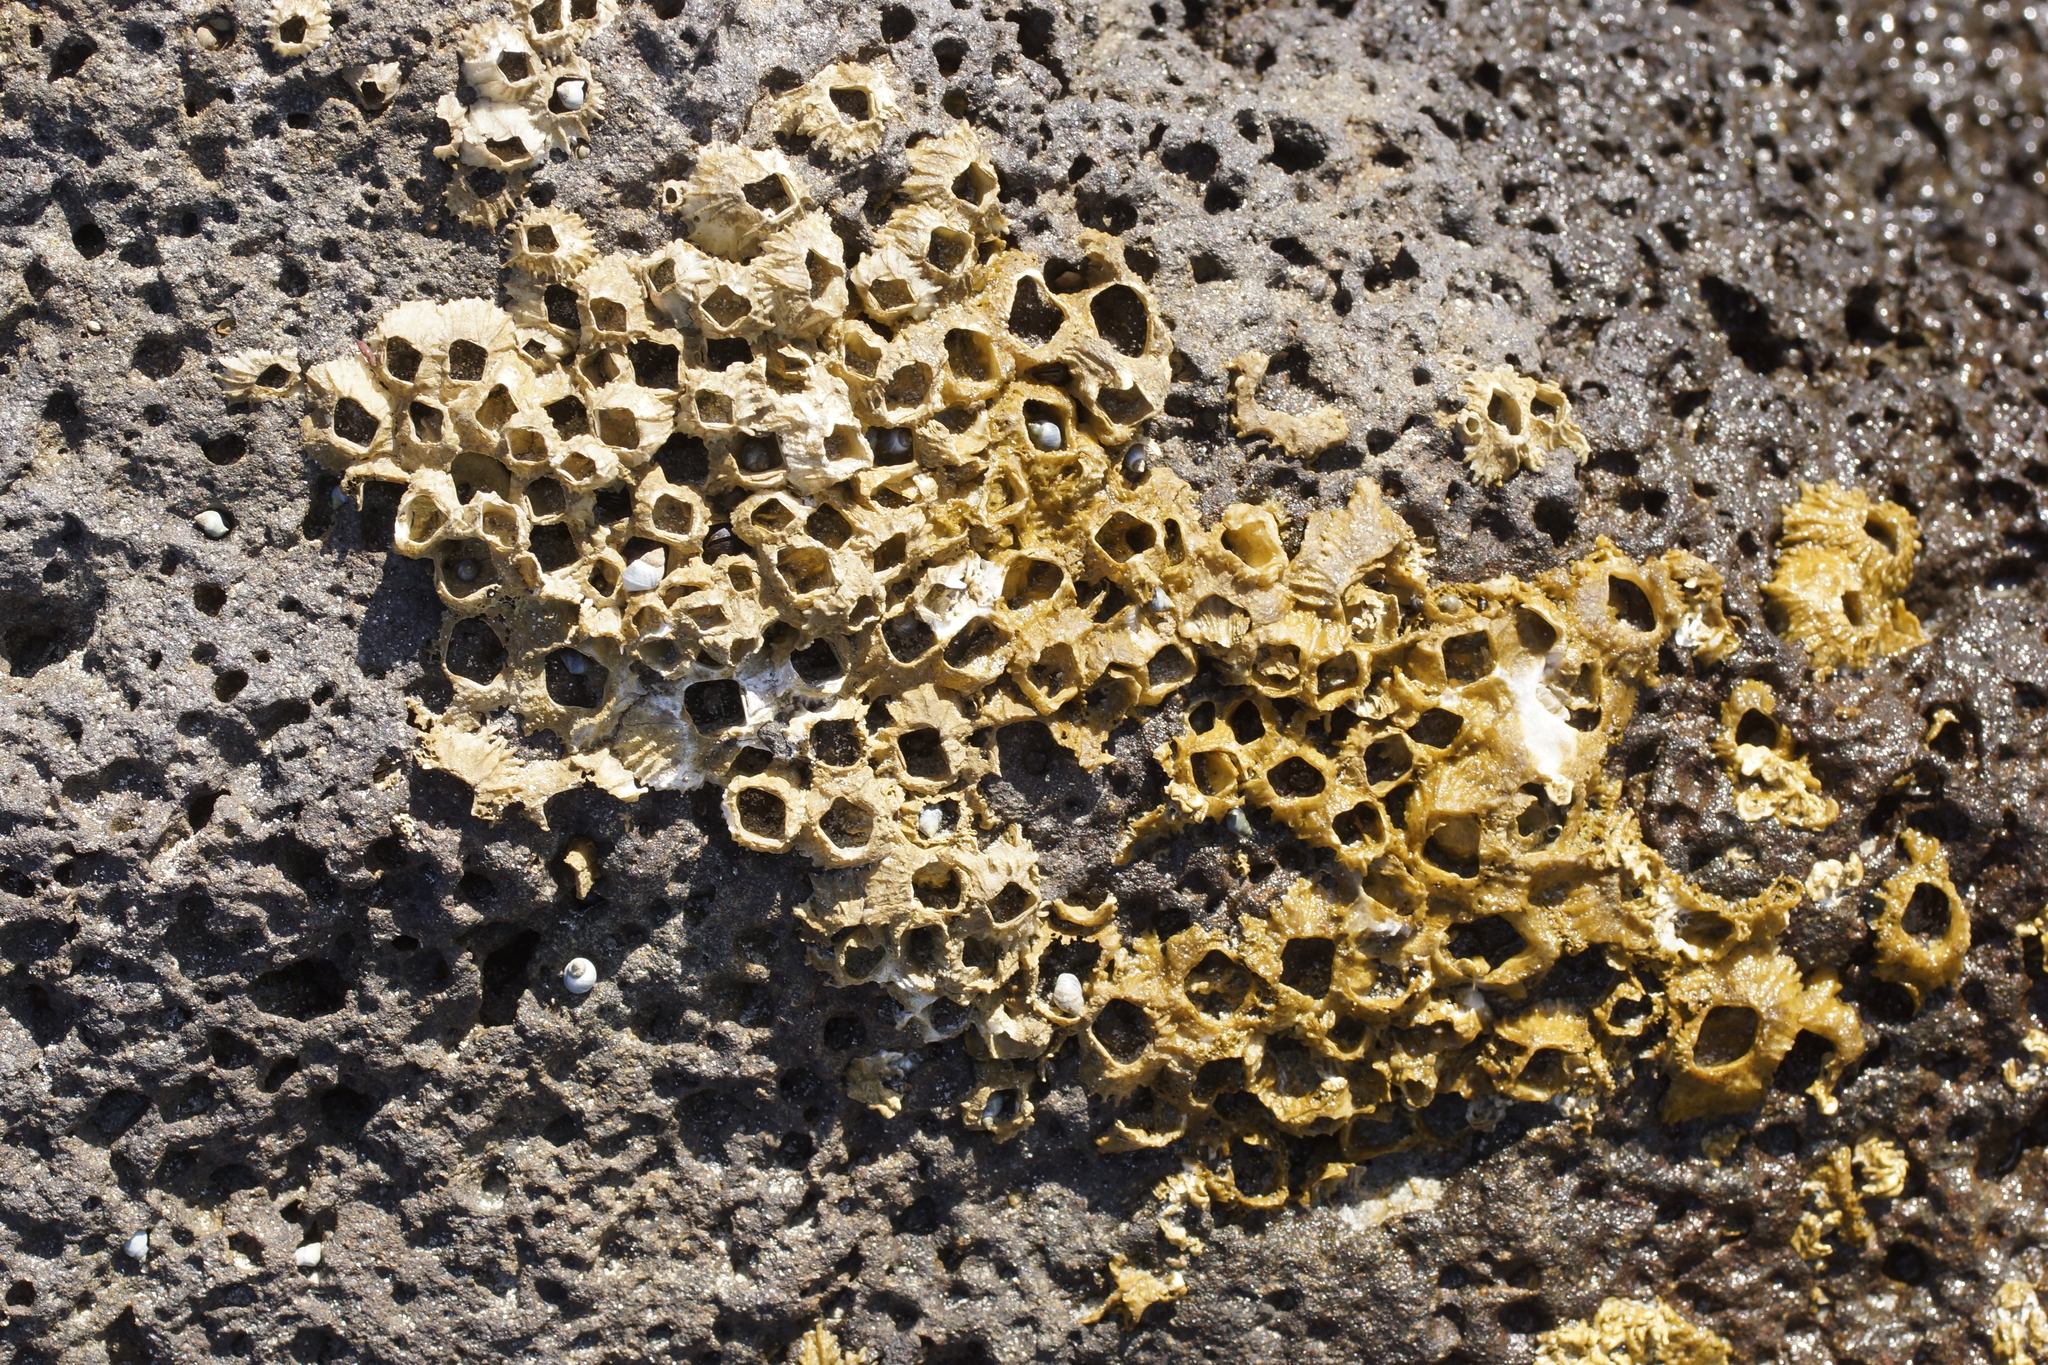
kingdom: Animalia
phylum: Arthropoda
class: Maxillopoda
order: Sessilia
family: Tetraclitidae
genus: Tetraclitella
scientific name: Tetraclitella purpurascens
